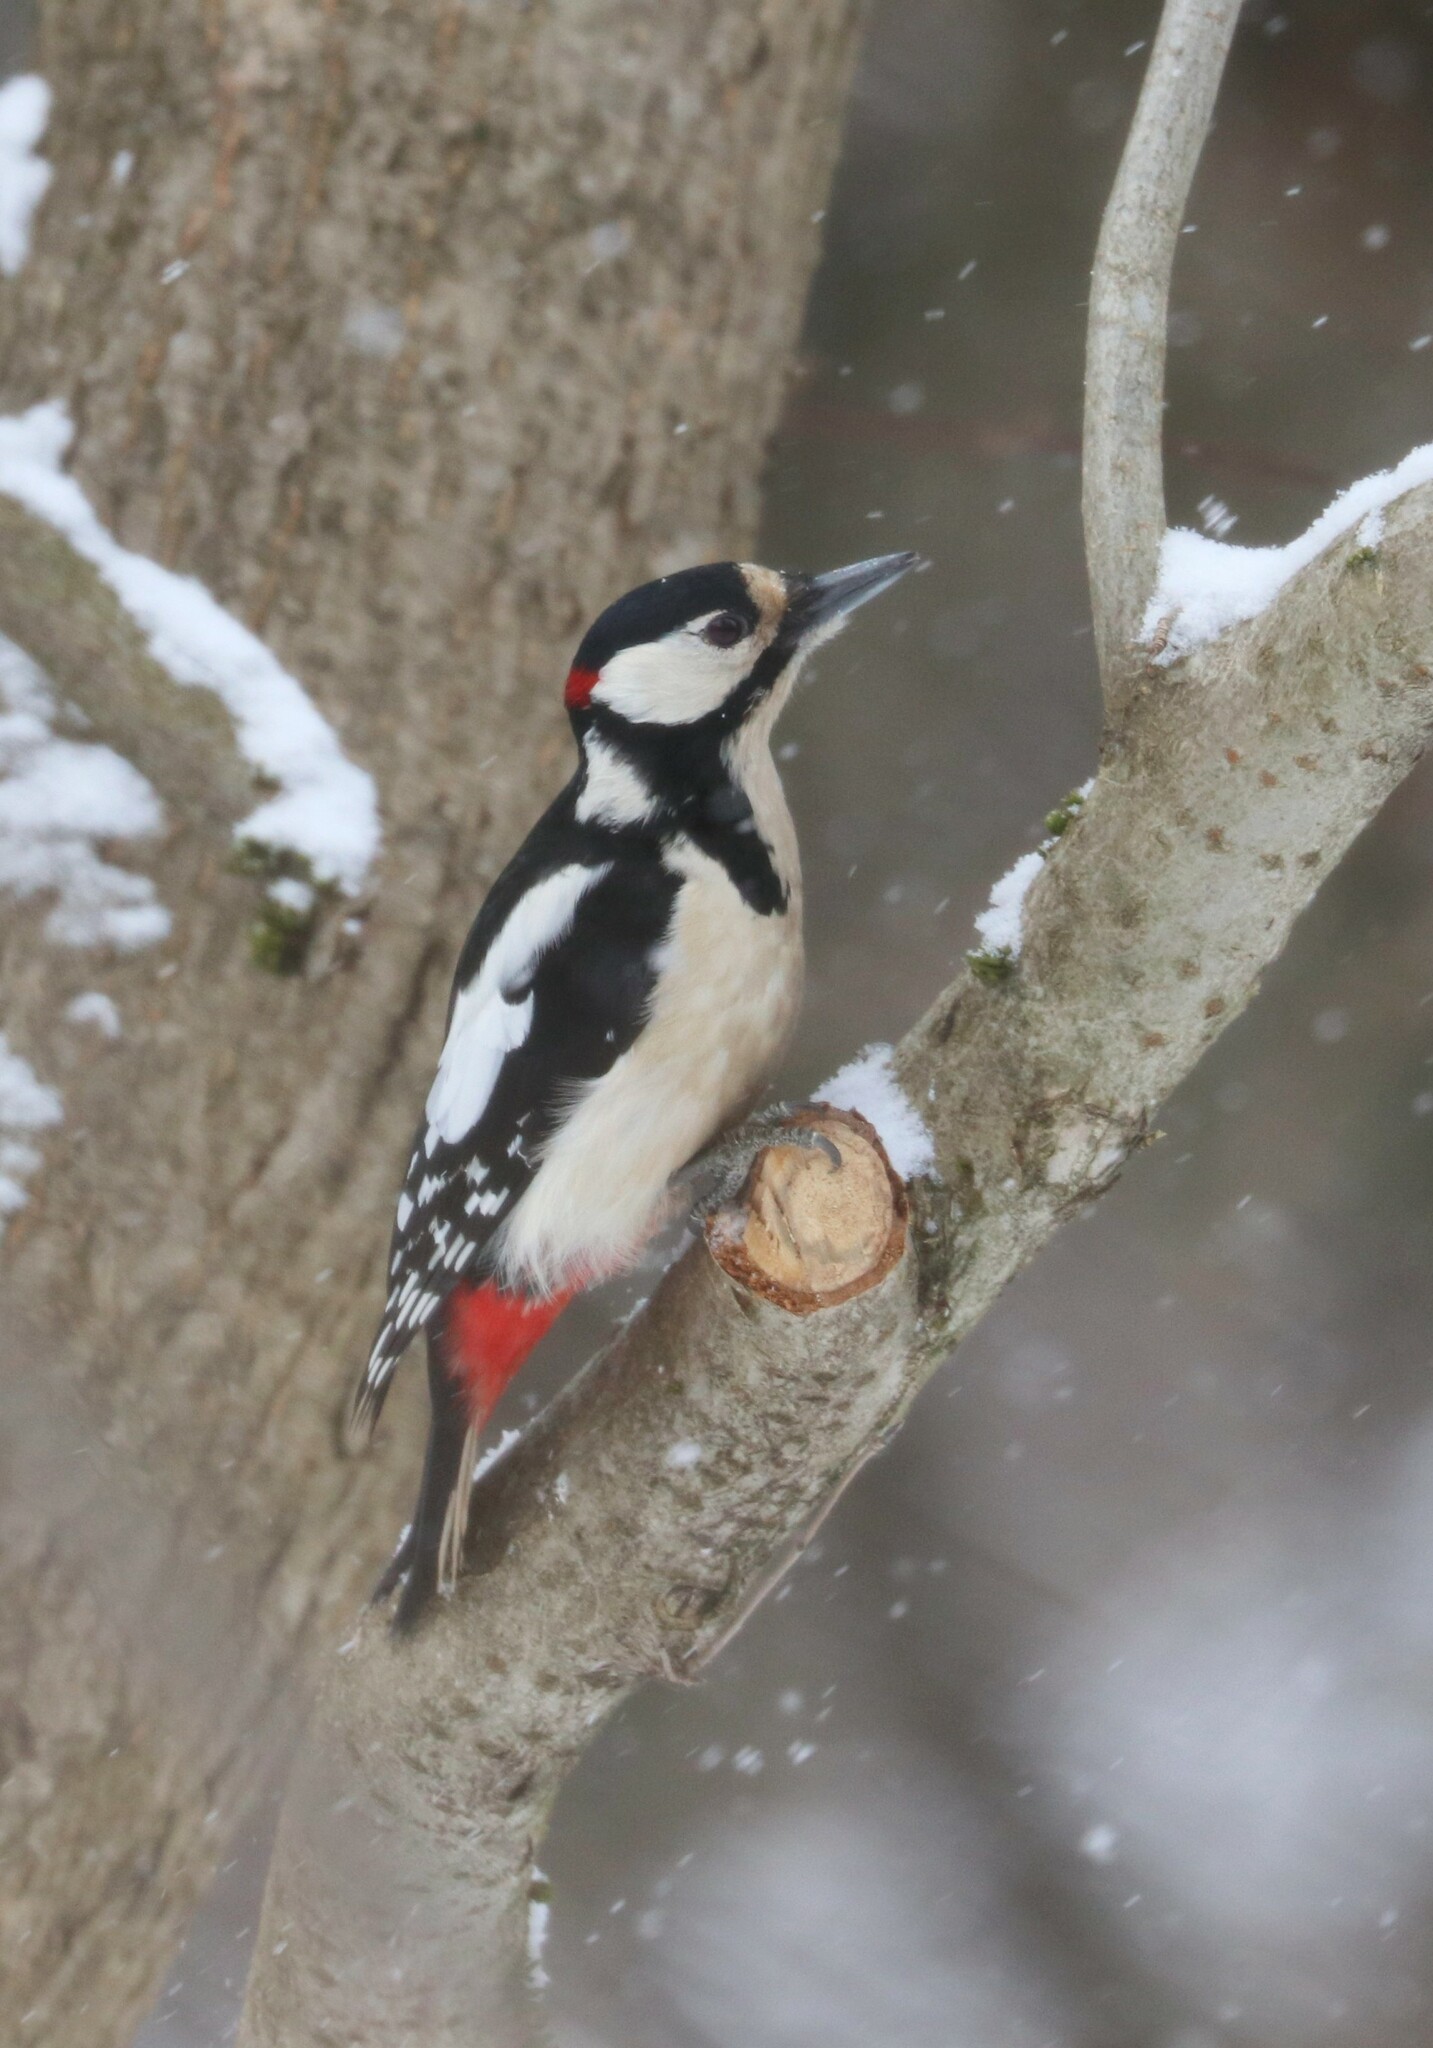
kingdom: Animalia
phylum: Chordata
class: Aves
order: Piciformes
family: Picidae
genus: Dendrocopos
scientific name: Dendrocopos major
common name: Great spotted woodpecker
